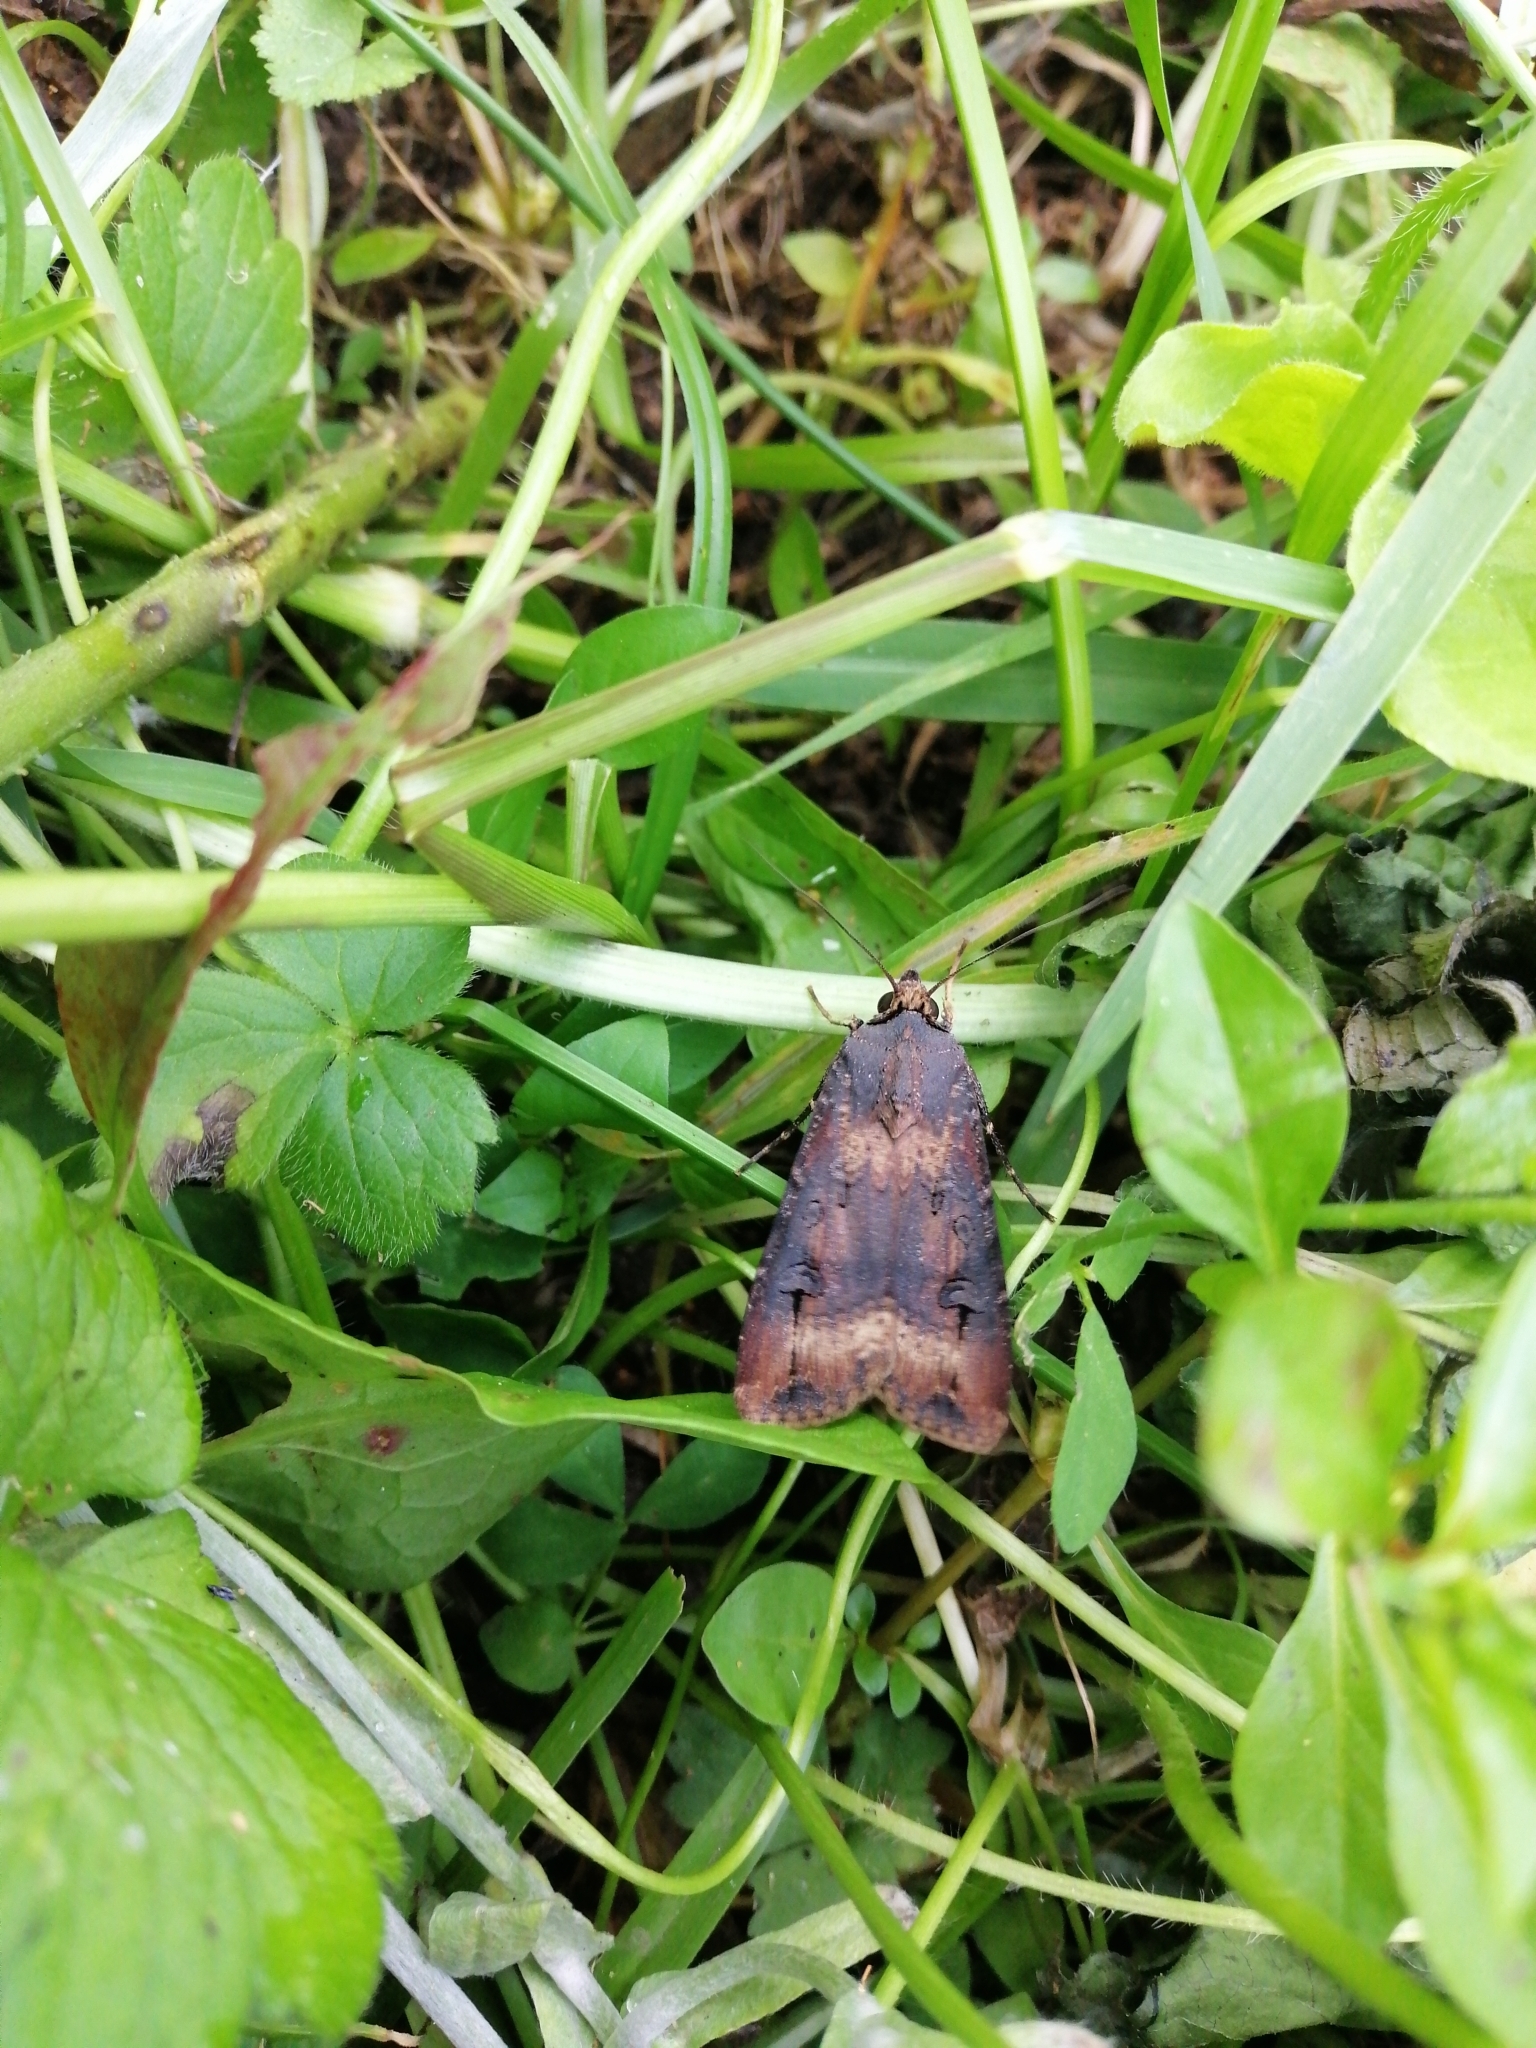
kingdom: Animalia
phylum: Arthropoda
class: Insecta
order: Lepidoptera
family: Noctuidae
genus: Agrotis
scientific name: Agrotis ipsilon
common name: Dark sword-grass
